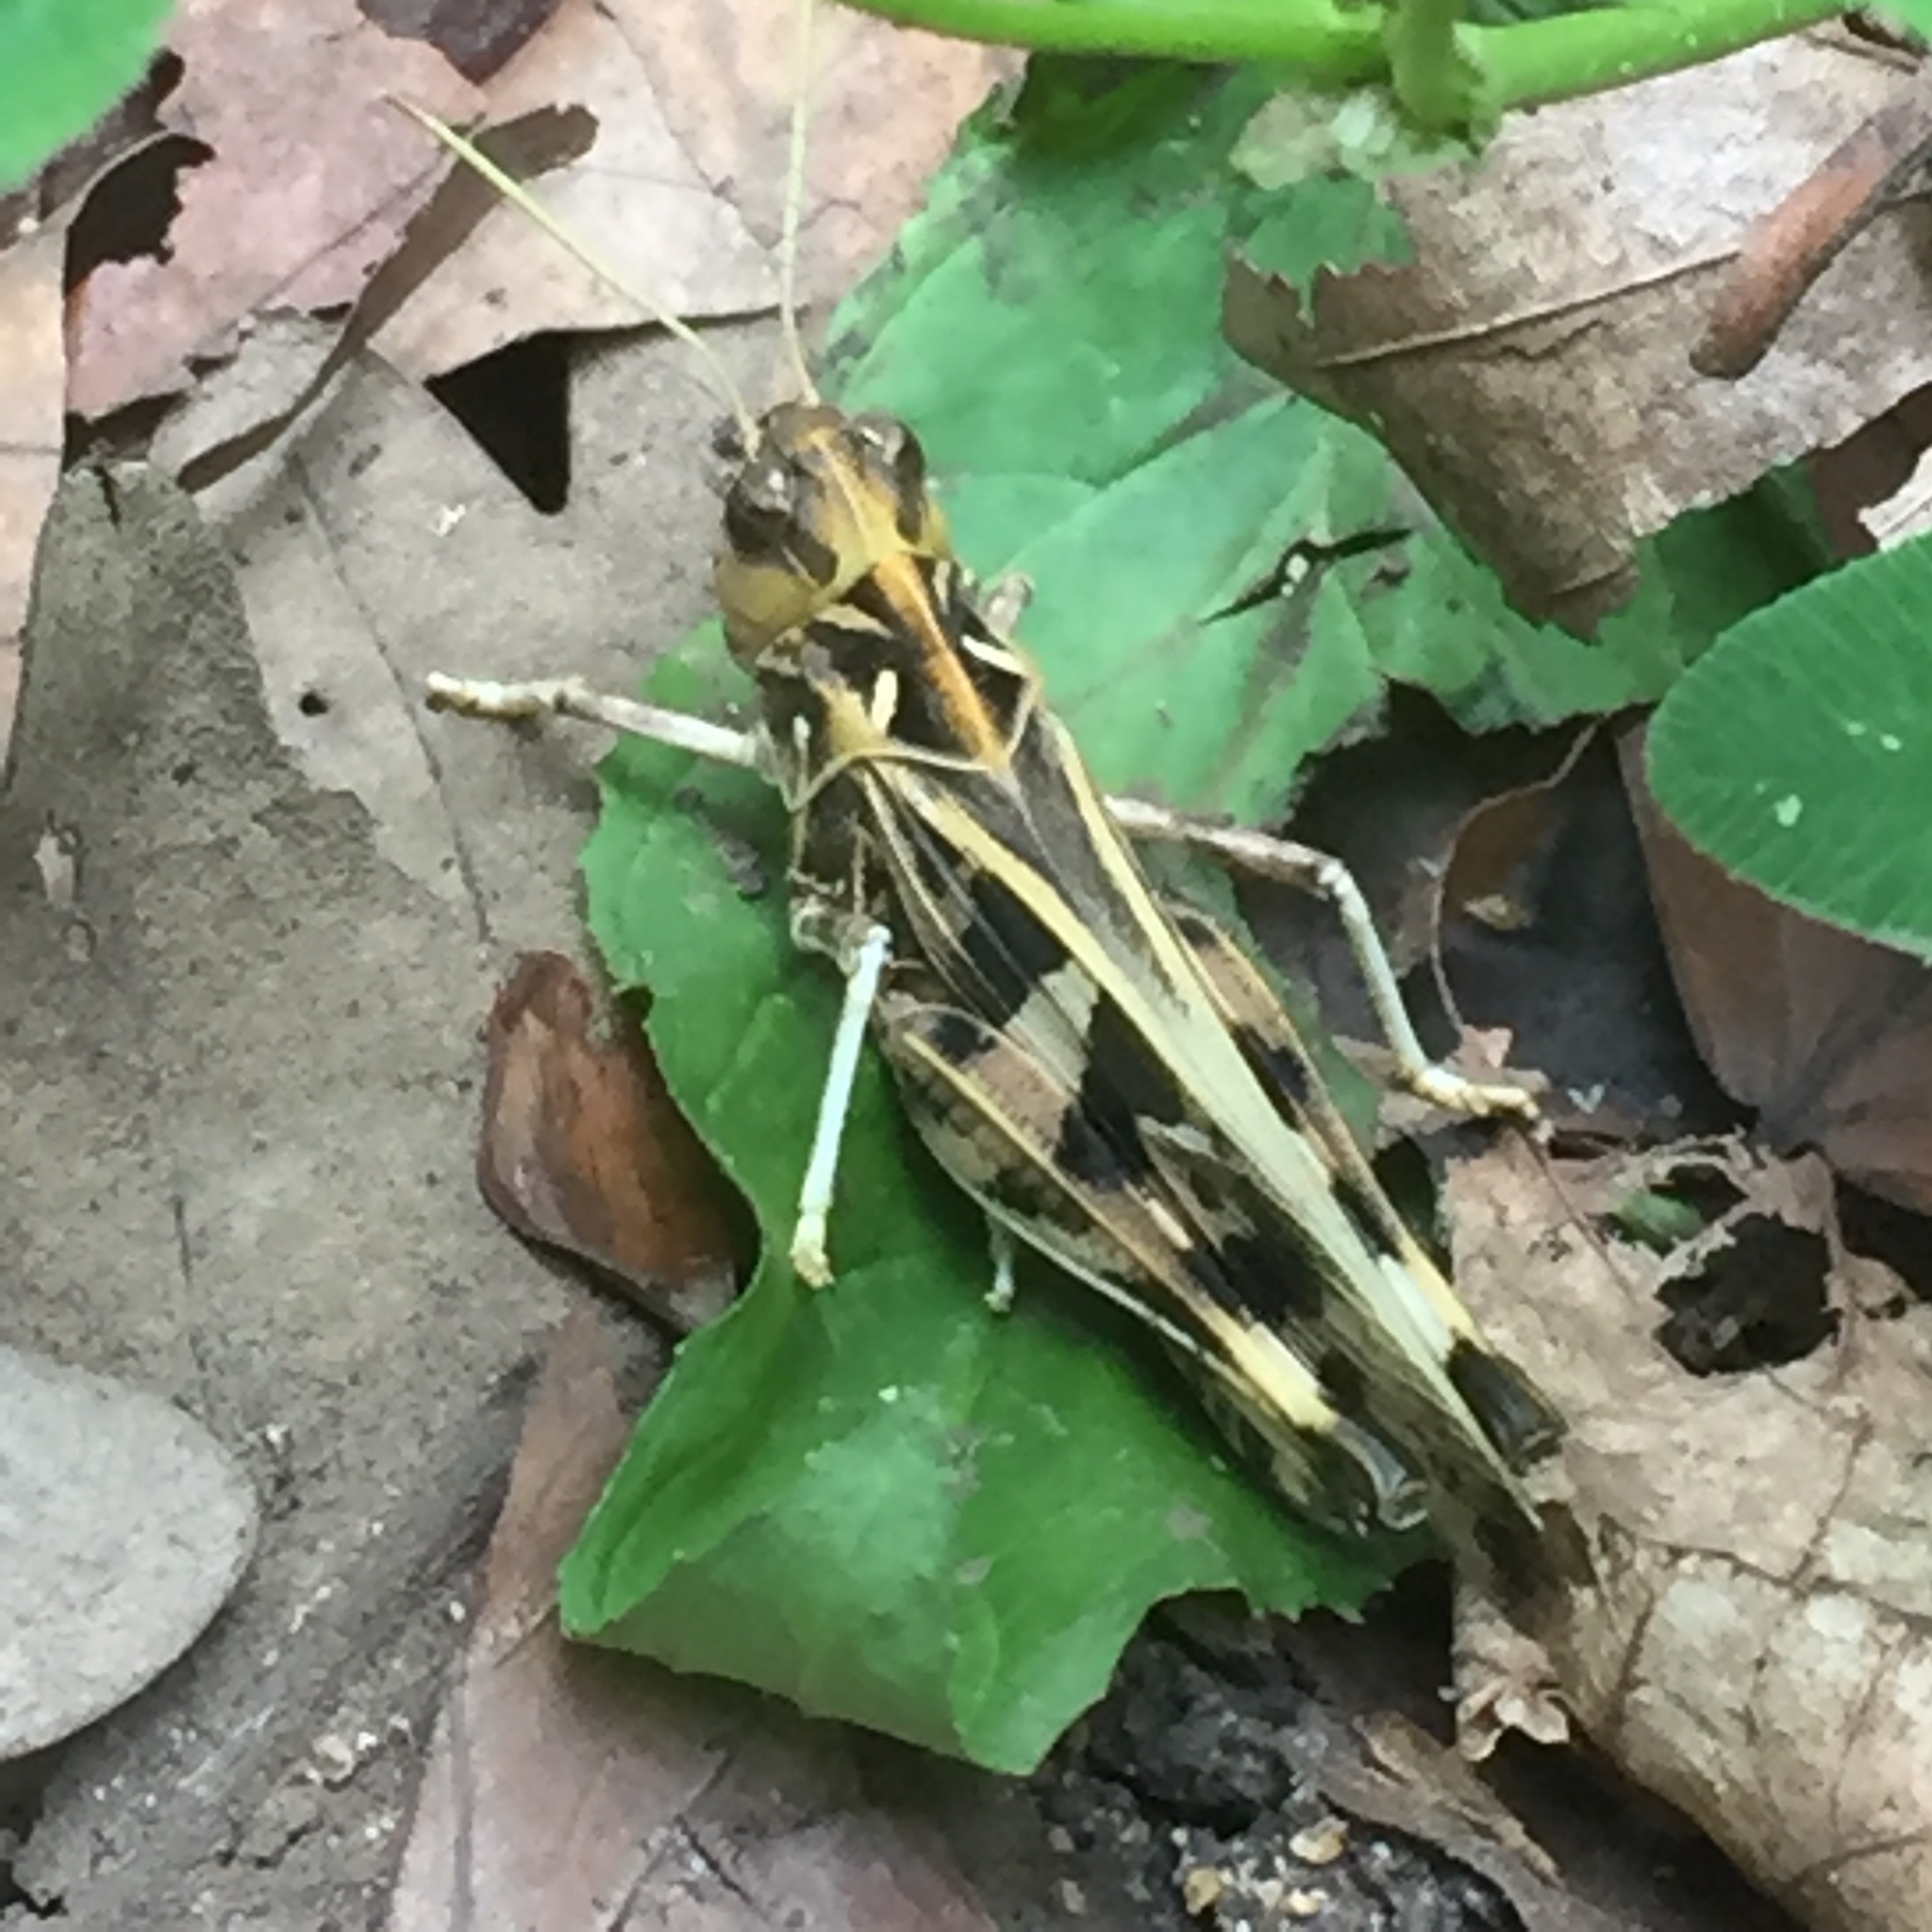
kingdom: Animalia
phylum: Arthropoda
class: Insecta
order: Orthoptera
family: Acrididae
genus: Oedaleus
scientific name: Oedaleus decorus
